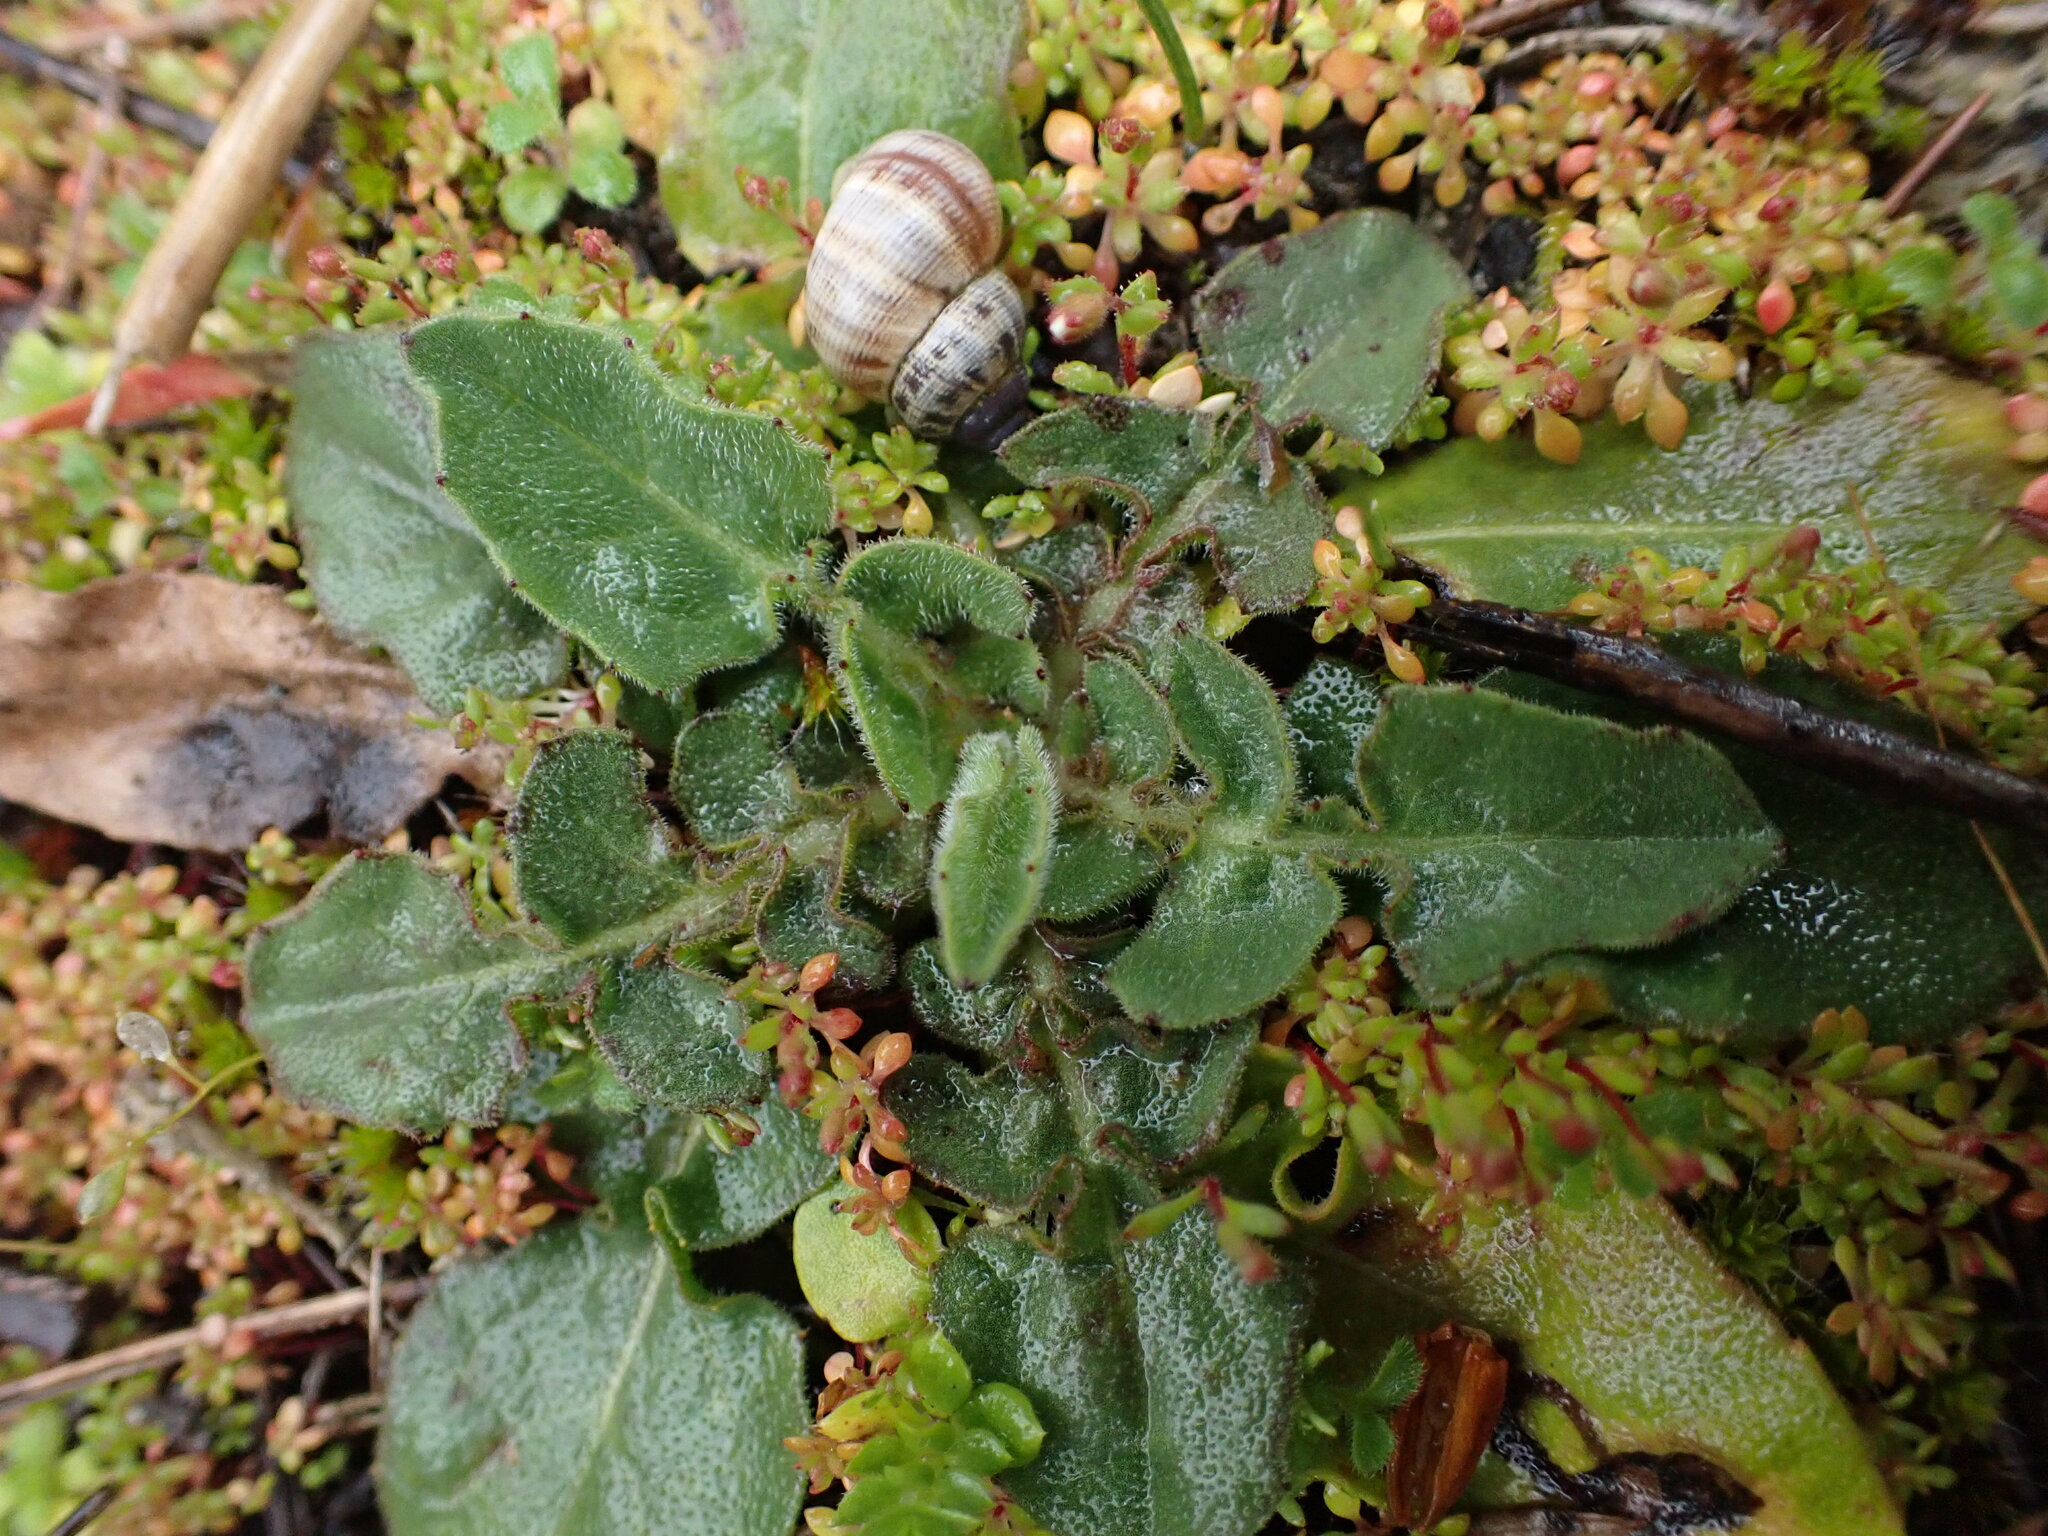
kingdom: Plantae
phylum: Tracheophyta
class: Magnoliopsida
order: Asterales
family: Asteraceae
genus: Urospermum
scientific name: Urospermum dalechampii
